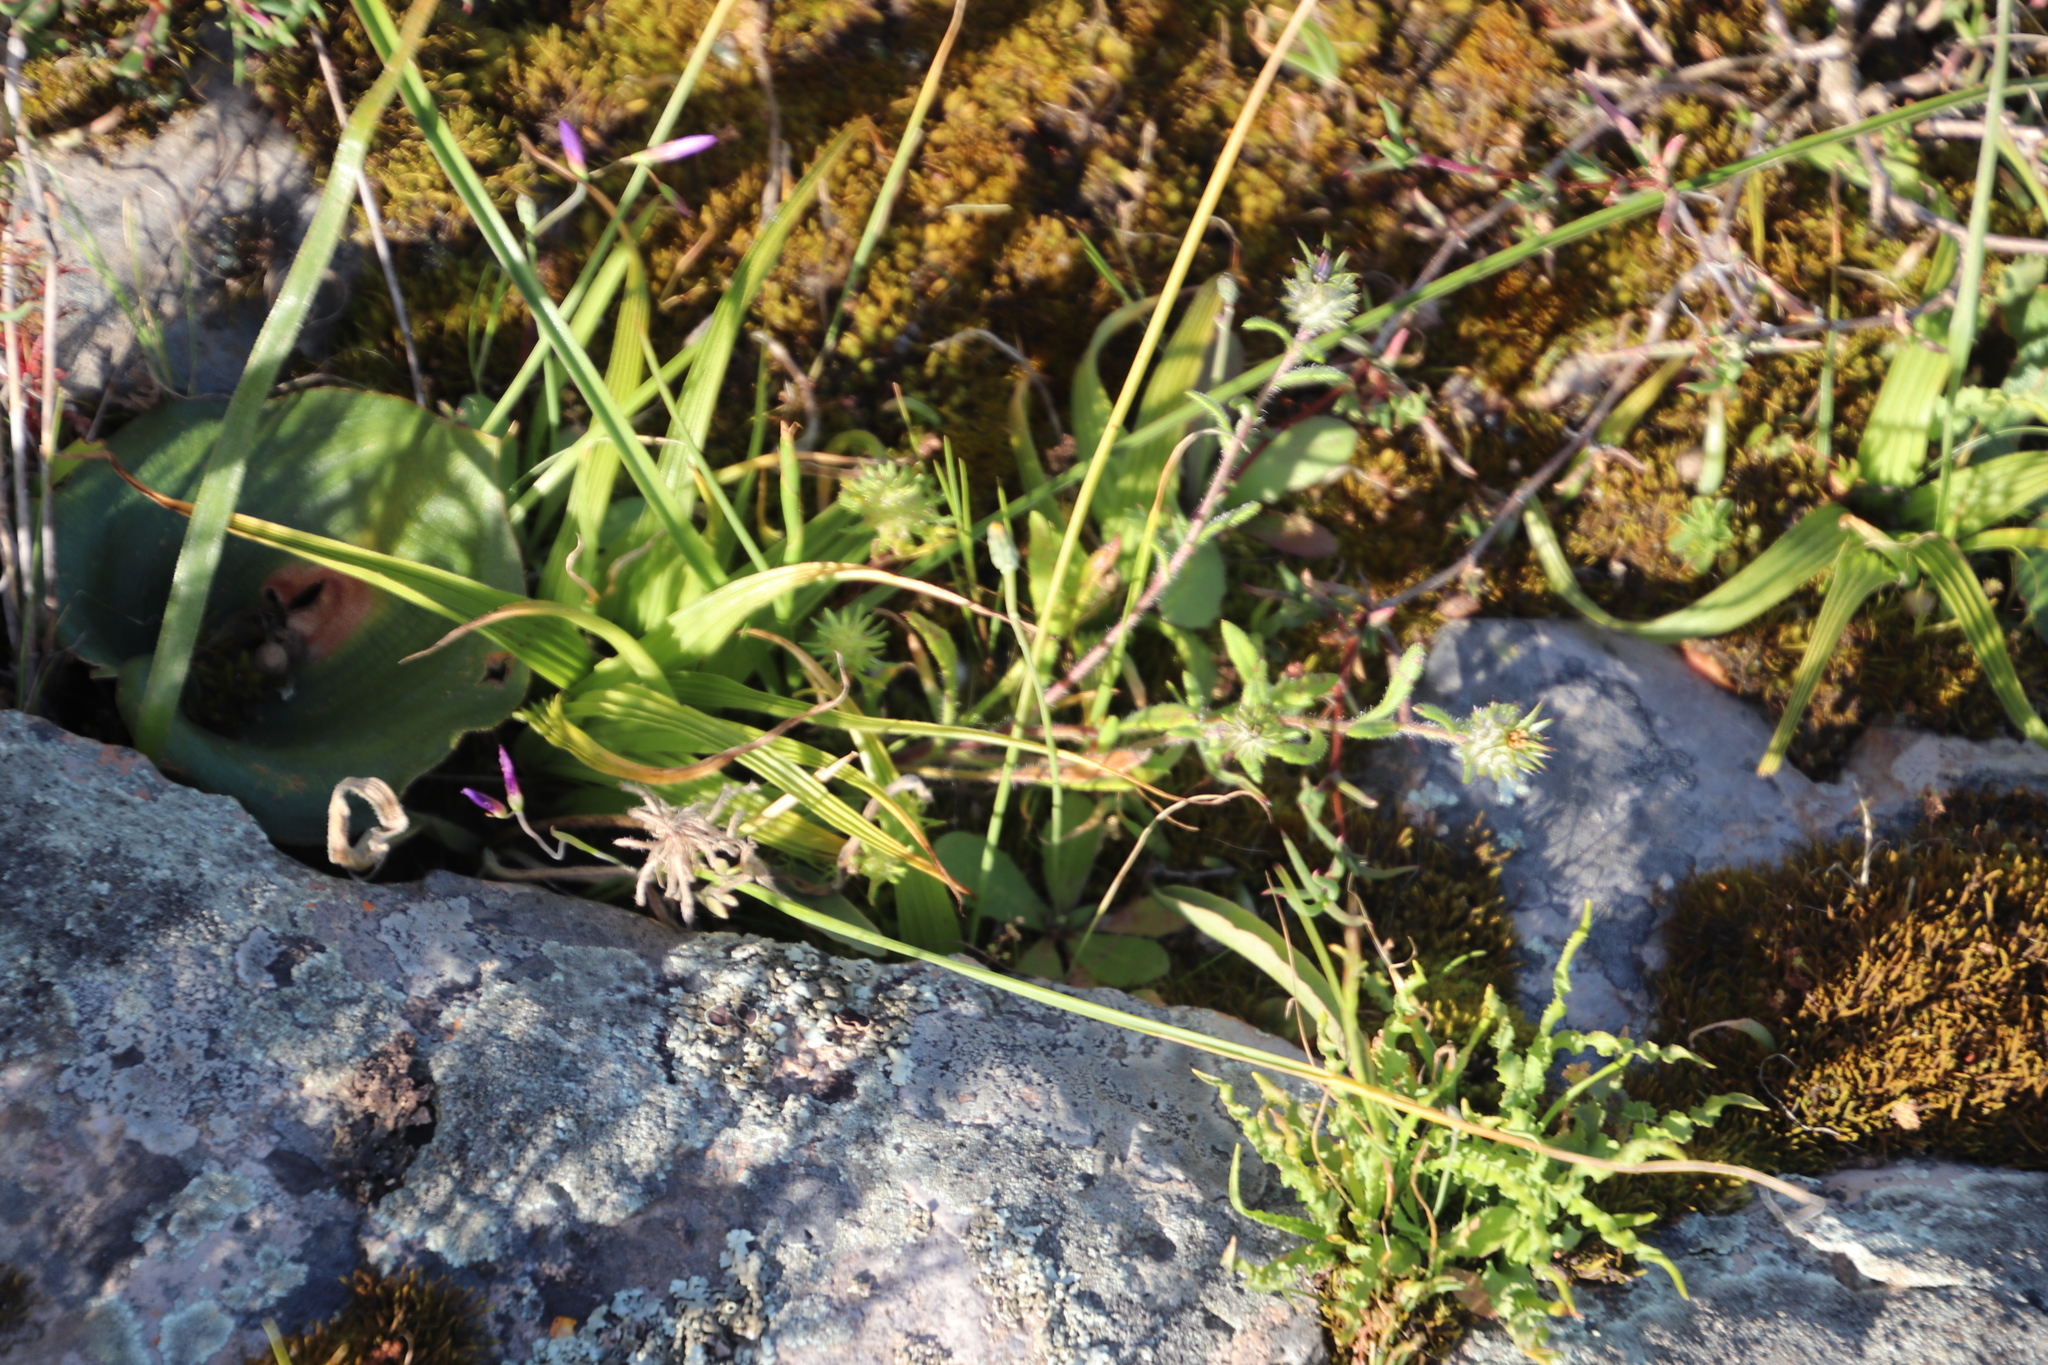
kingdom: Plantae
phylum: Tracheophyta
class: Magnoliopsida
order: Asterales
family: Asteraceae
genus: Gorteria
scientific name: Gorteria personata
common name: Gorteria
